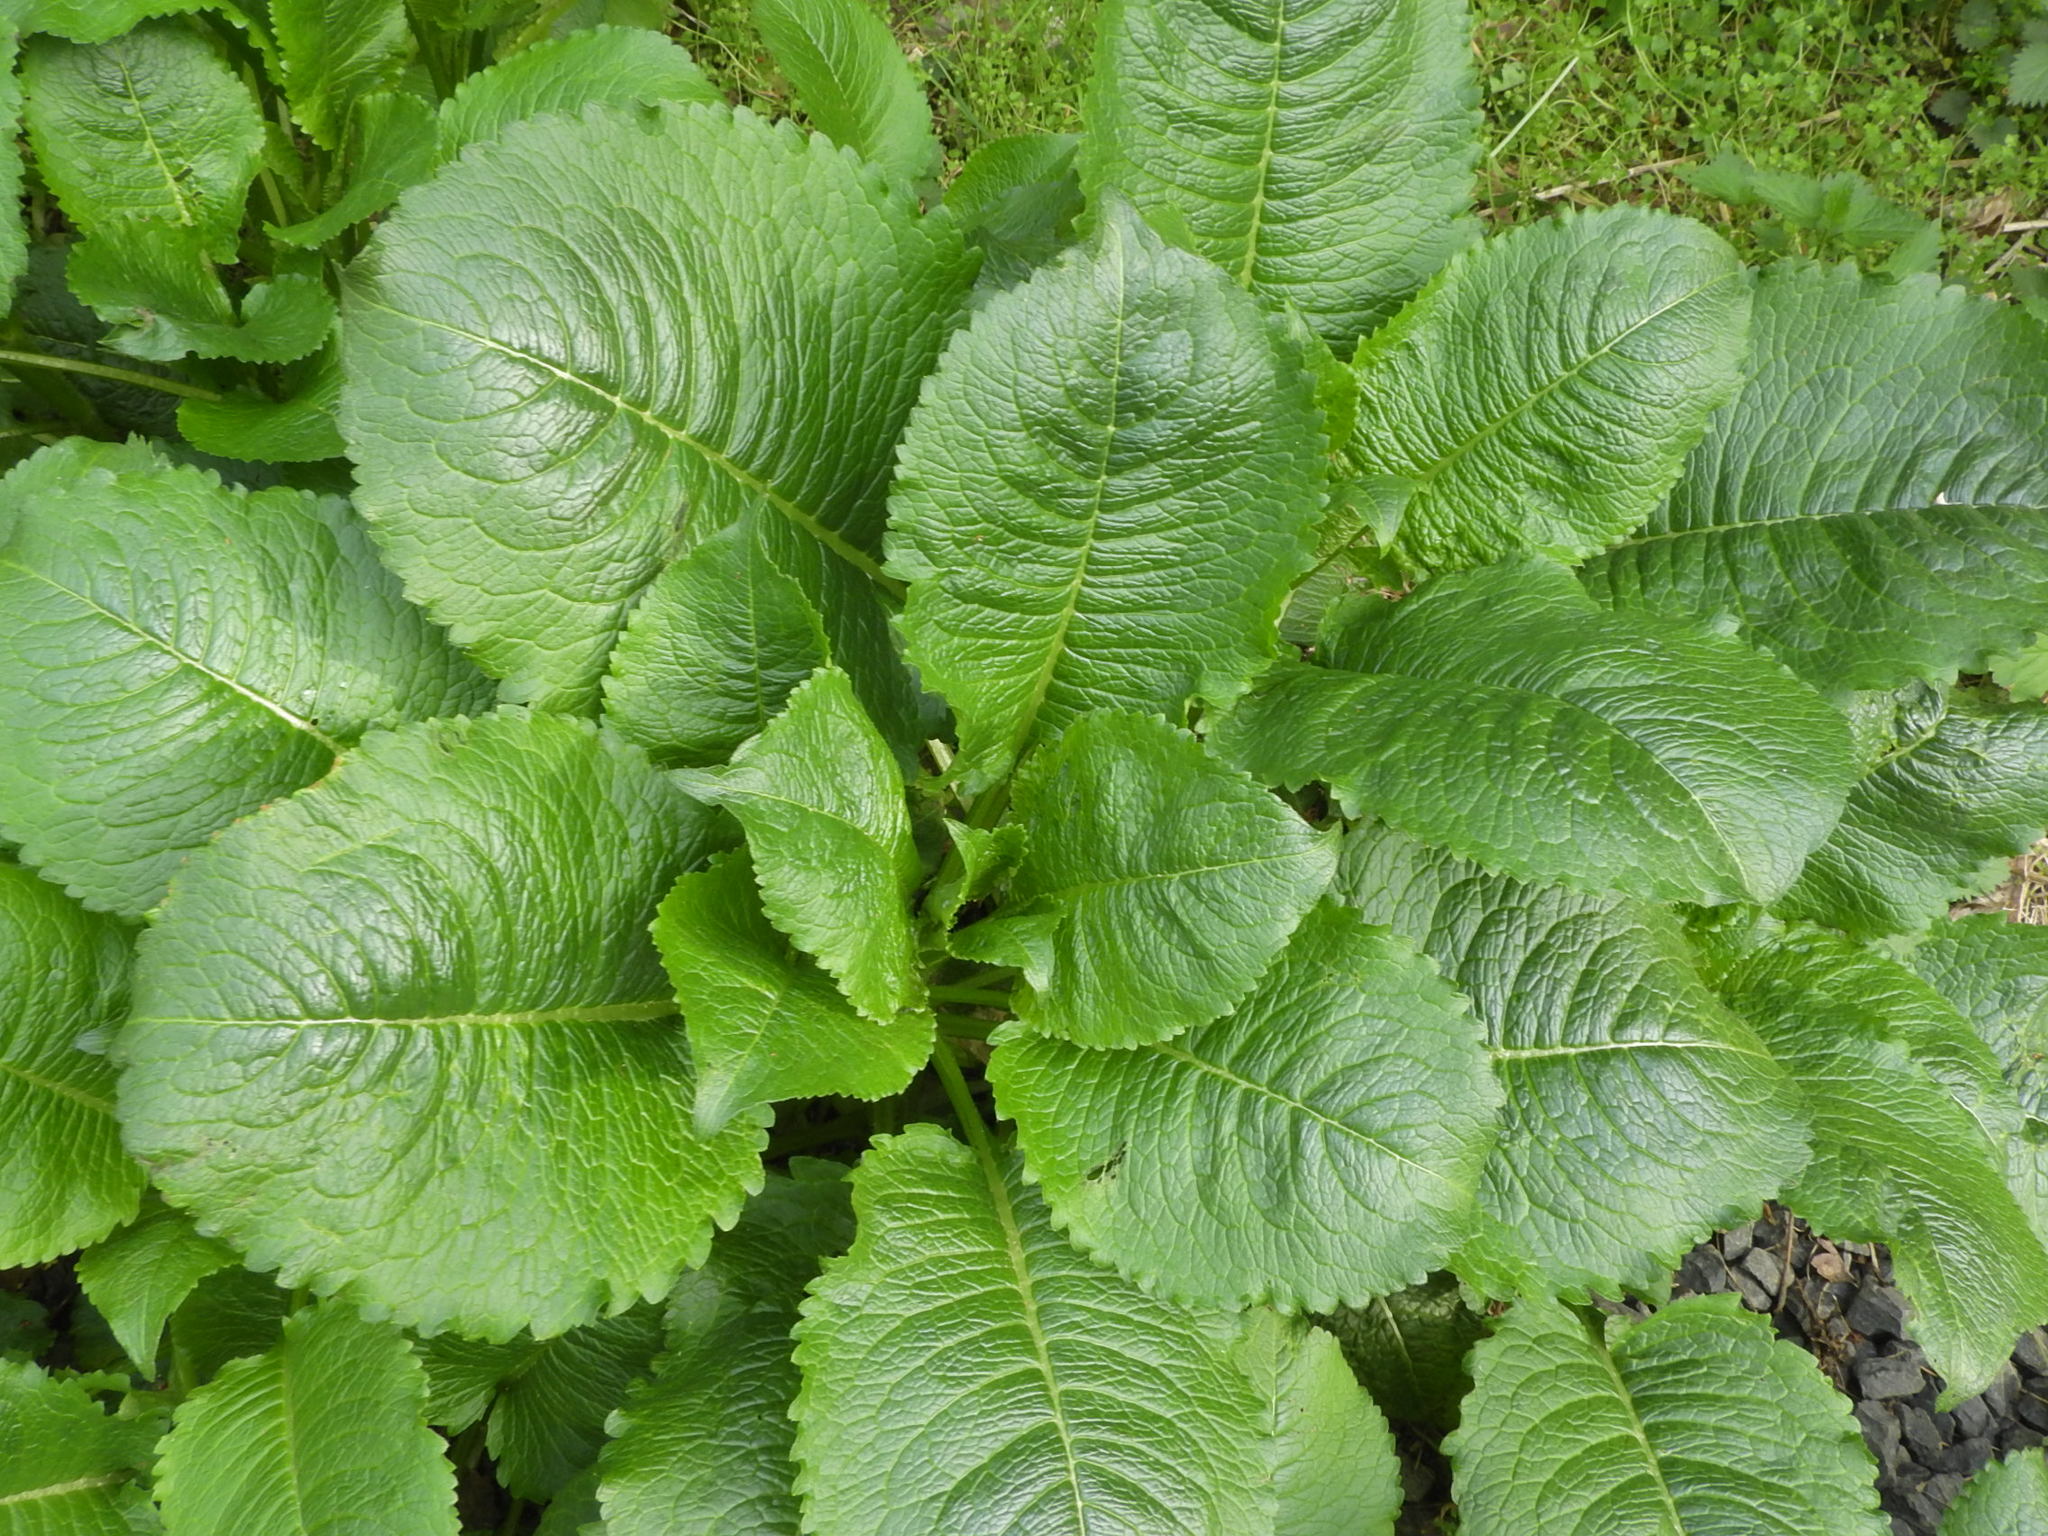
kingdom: Plantae
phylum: Tracheophyta
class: Magnoliopsida
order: Dipsacales
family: Caprifoliaceae
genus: Dipsacus
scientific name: Dipsacus strigosus
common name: Yellow-flowered teasel
